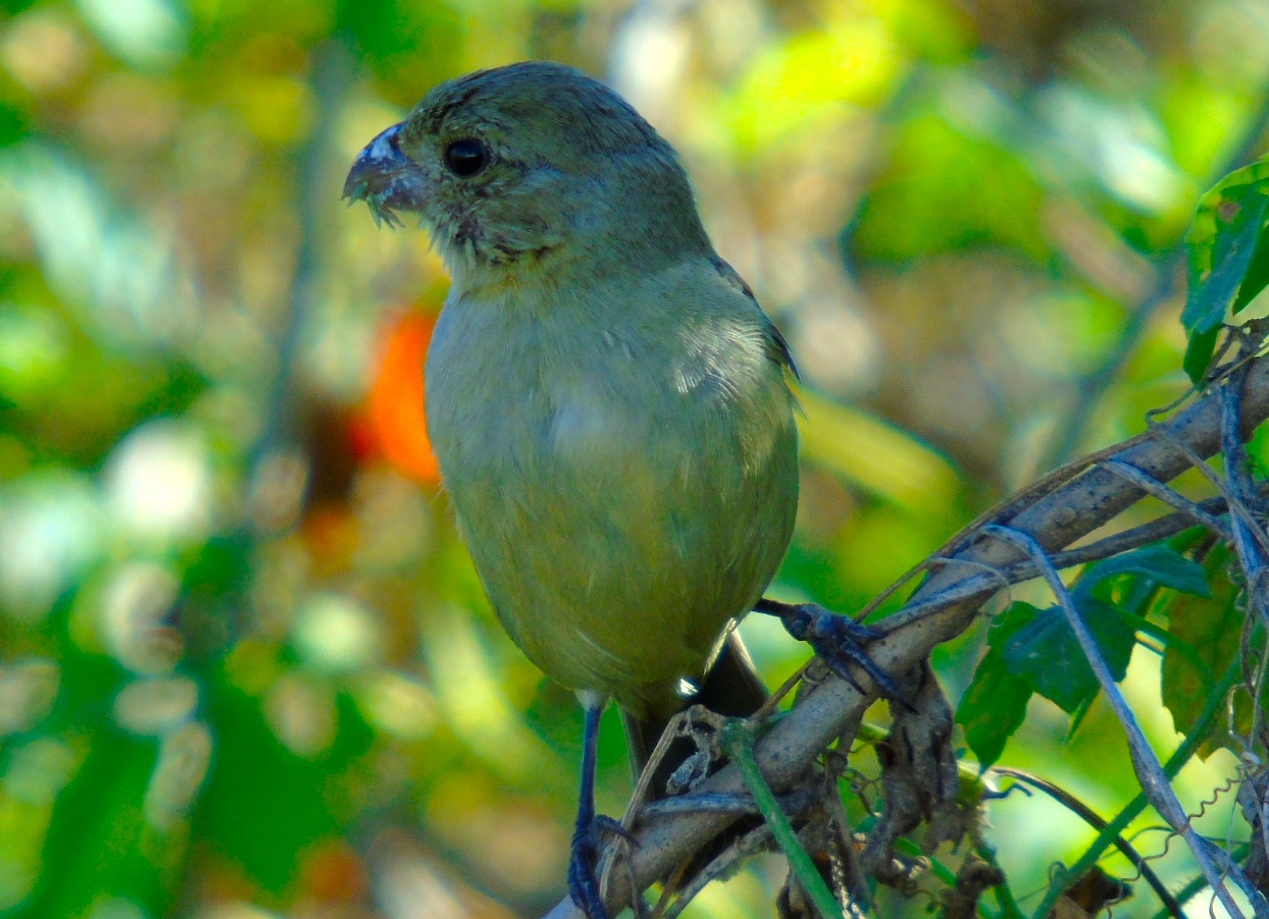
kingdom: Animalia
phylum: Chordata
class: Aves
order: Passeriformes
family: Thraupidae
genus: Sporophila
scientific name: Sporophila torqueola
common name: White-collared seedeater
